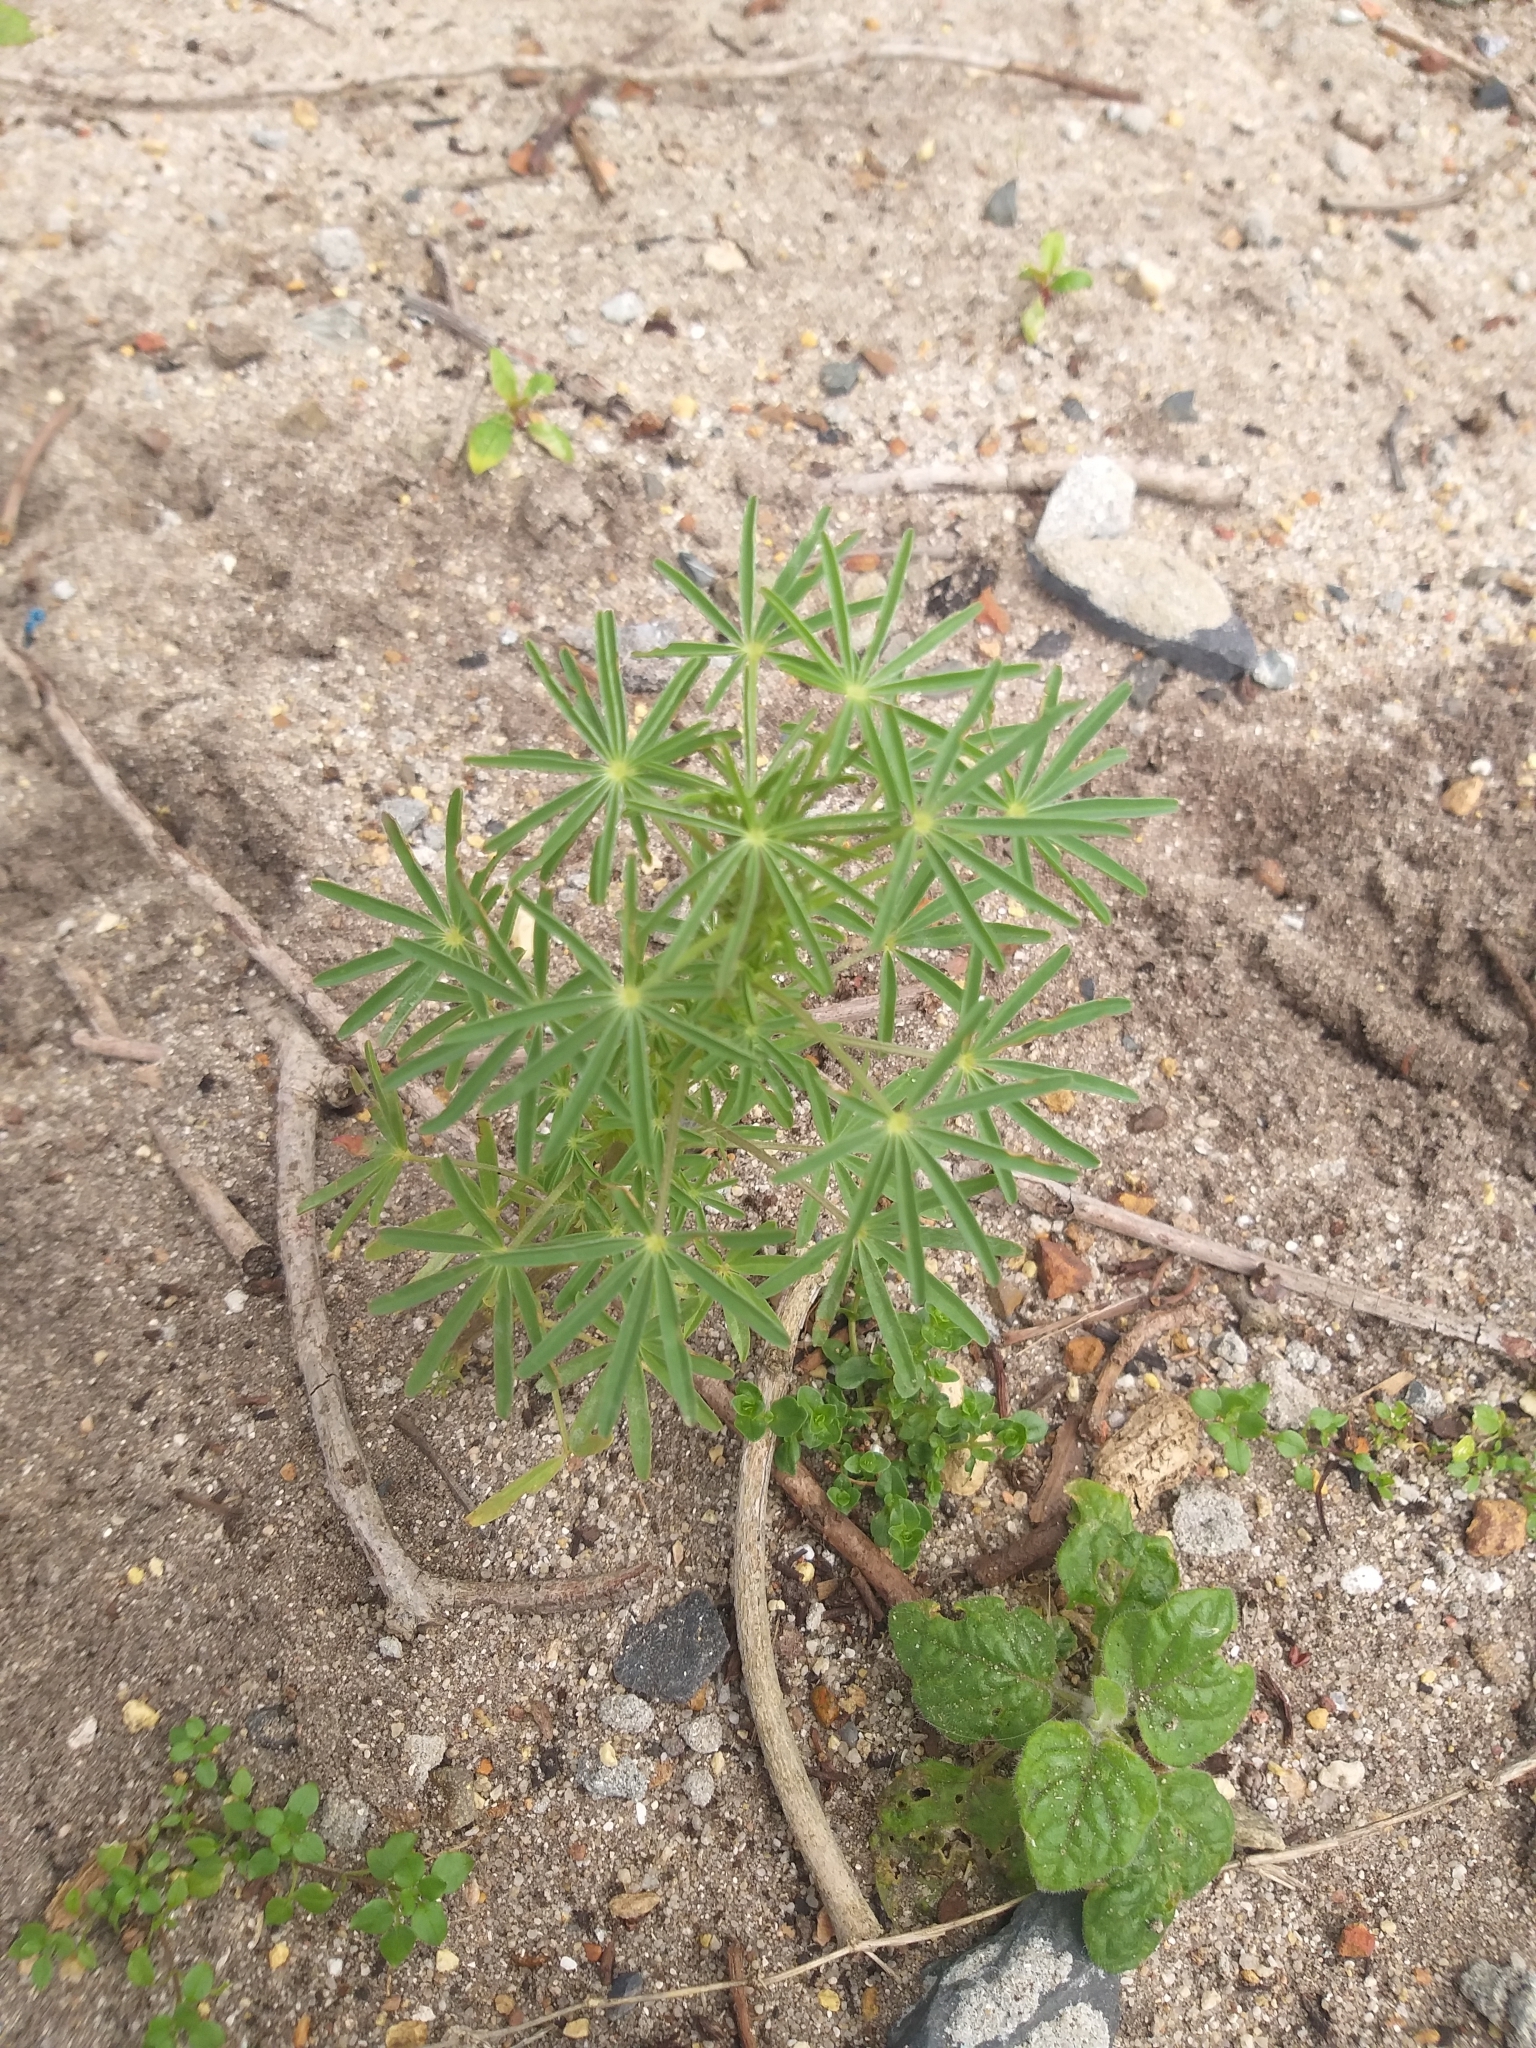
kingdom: Plantae
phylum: Tracheophyta
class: Magnoliopsida
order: Fabales
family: Fabaceae
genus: Lupinus
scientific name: Lupinus angustifolius
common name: Narrow-leaved lupin
